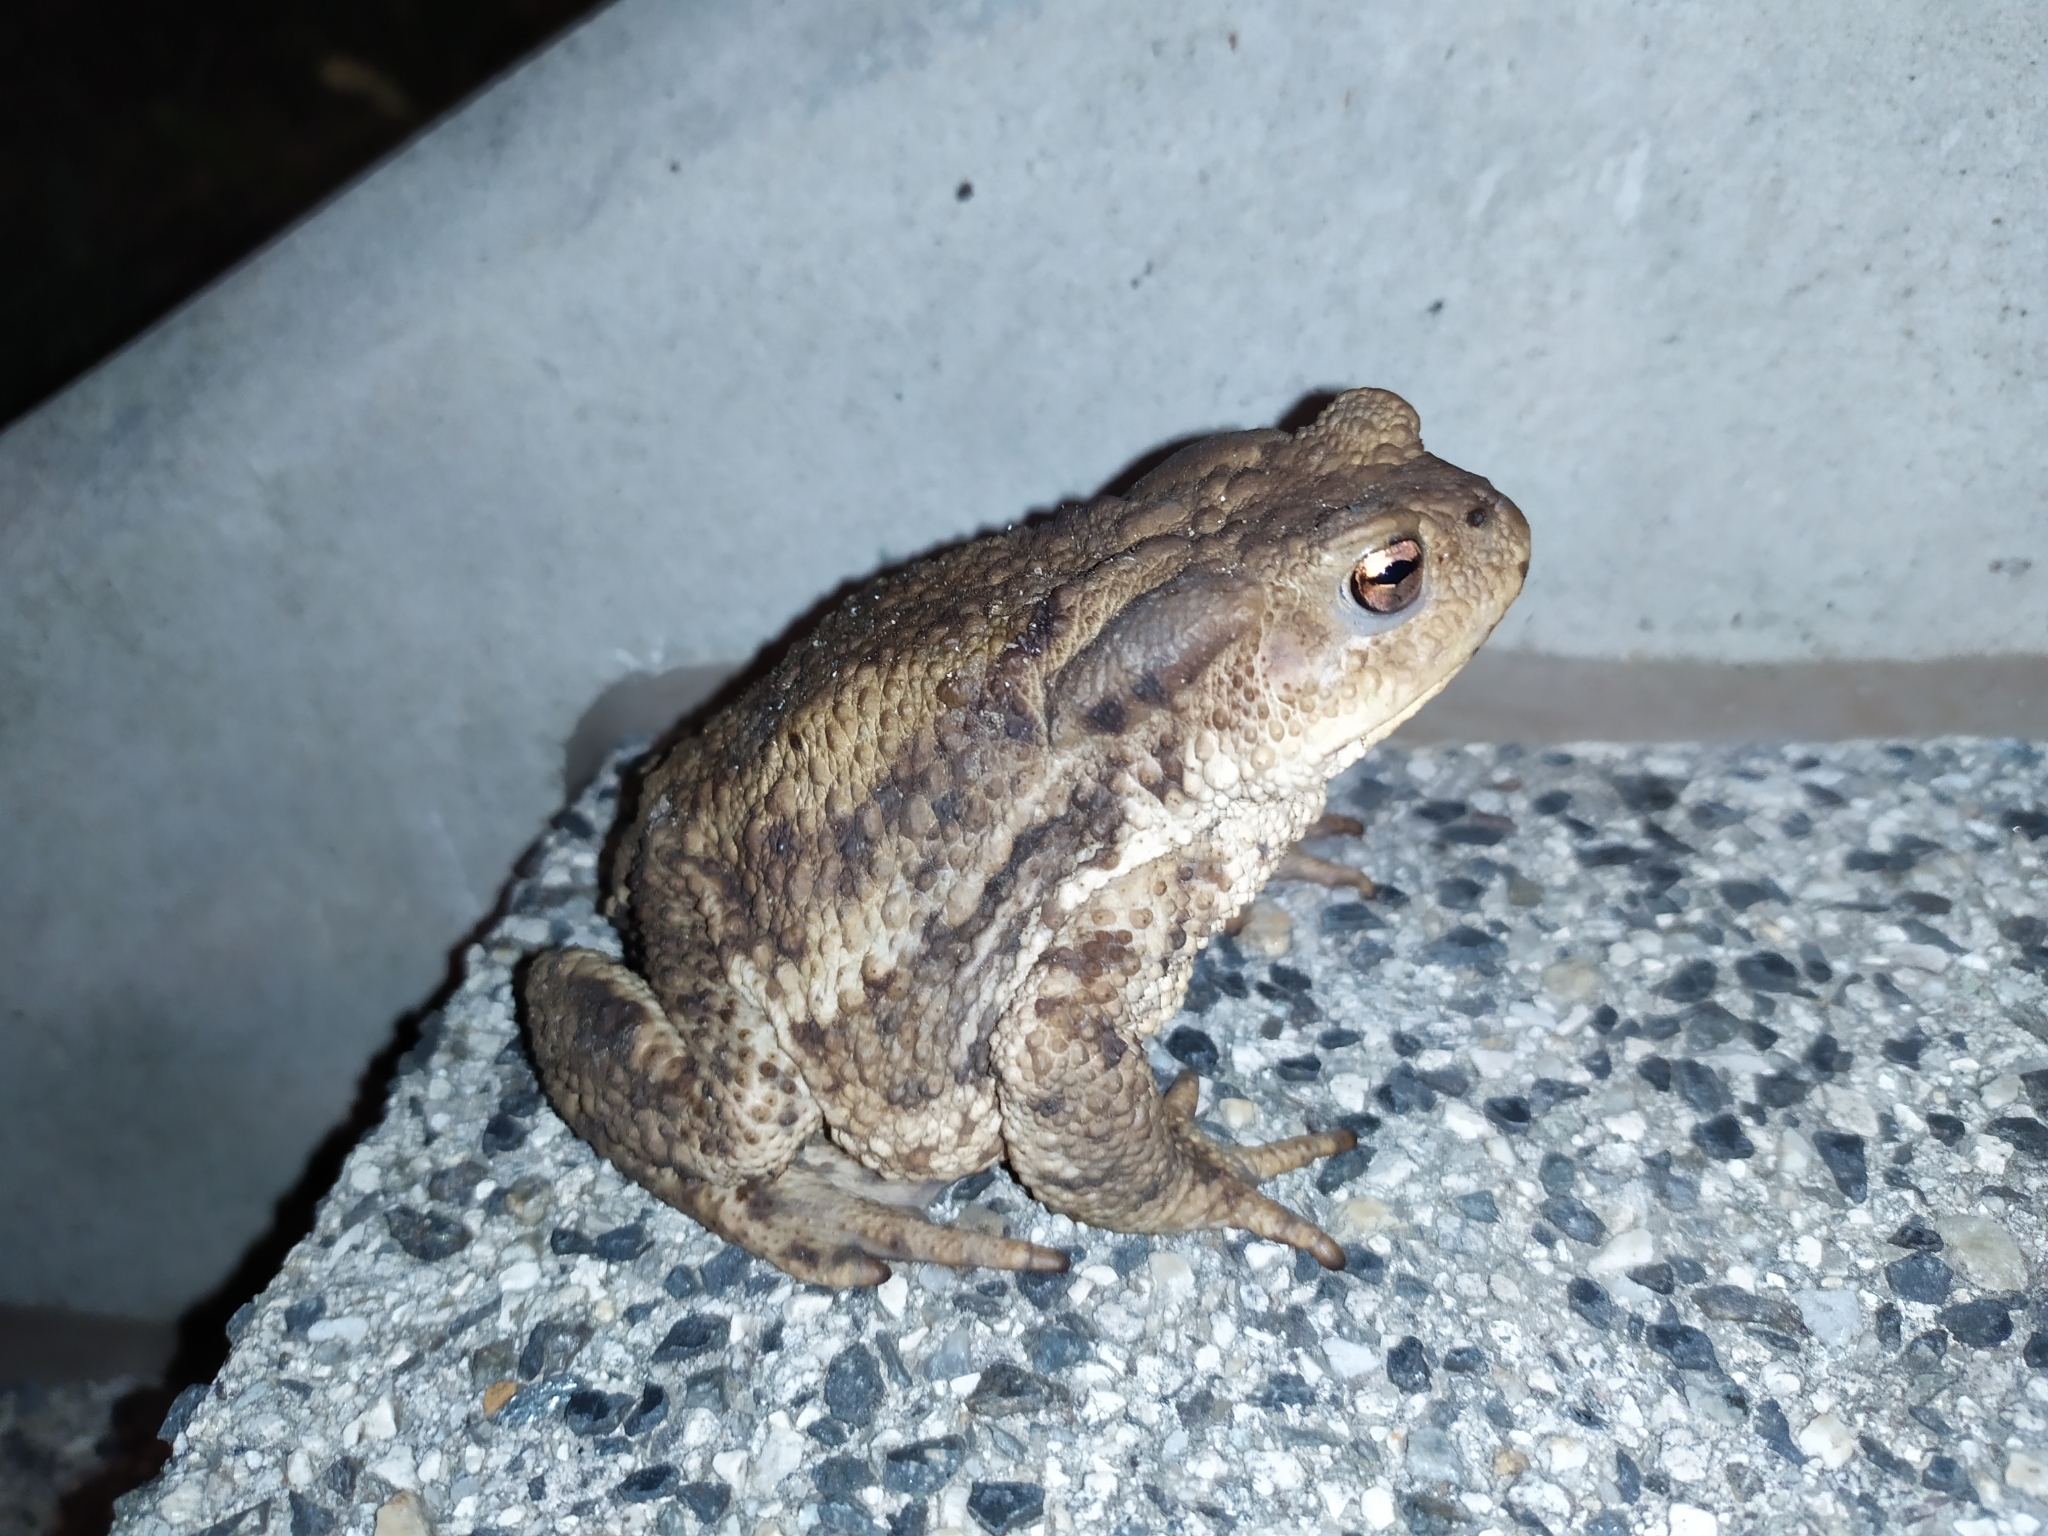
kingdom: Animalia
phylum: Chordata
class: Amphibia
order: Anura
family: Bufonidae
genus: Bufo
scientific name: Bufo bufo
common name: Common toad
